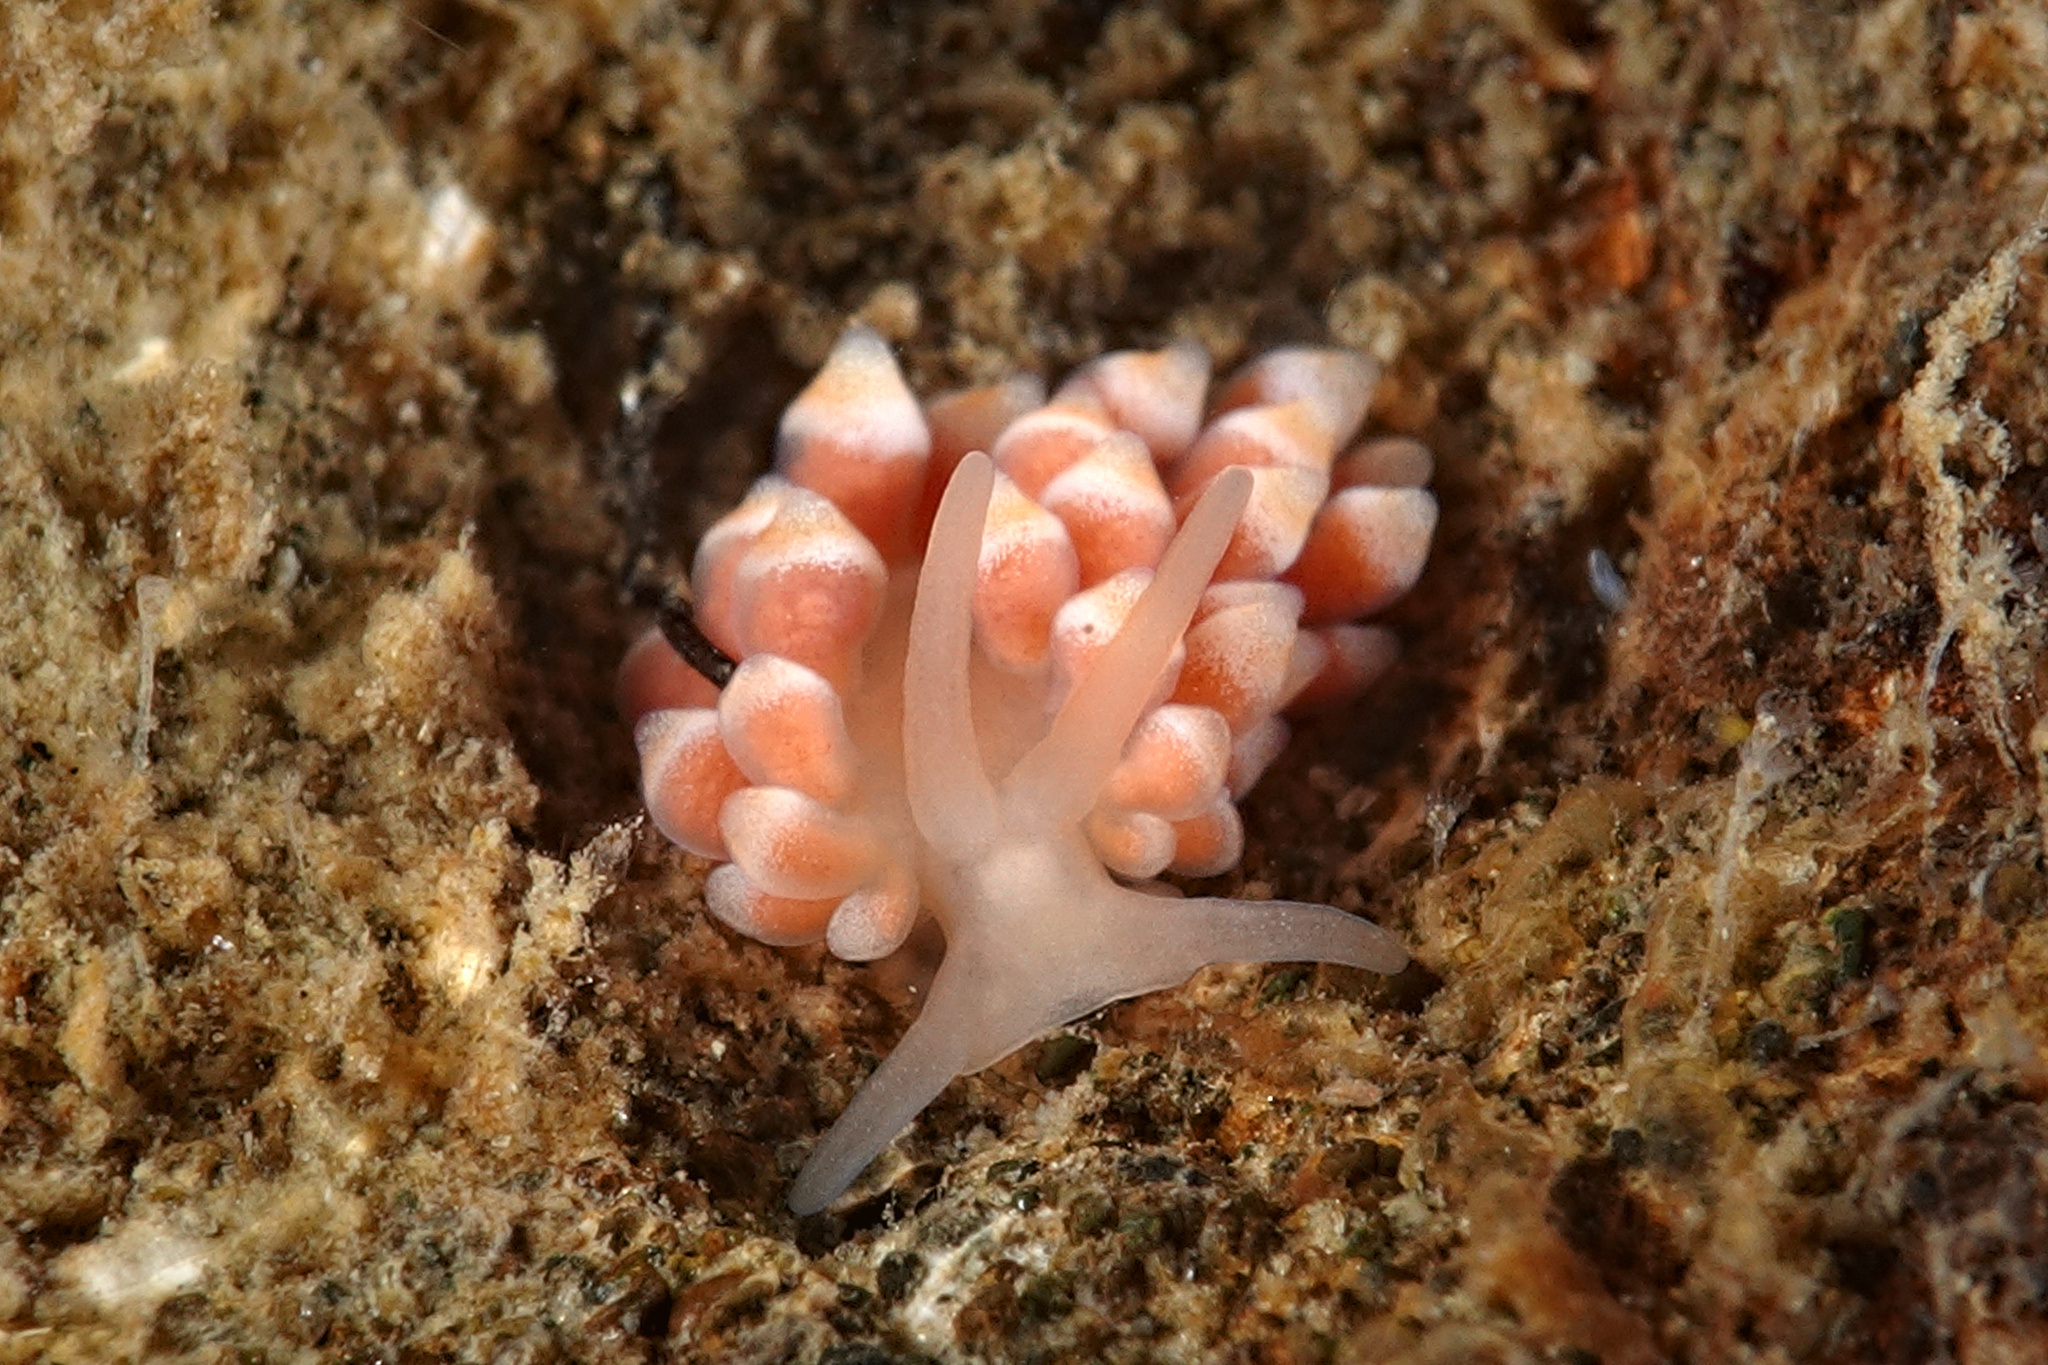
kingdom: Animalia
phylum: Mollusca
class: Gastropoda
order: Nudibranchia
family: Trinchesiidae
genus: Catriona
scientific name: Catriona aurantia
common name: Corange-tip cuthona
